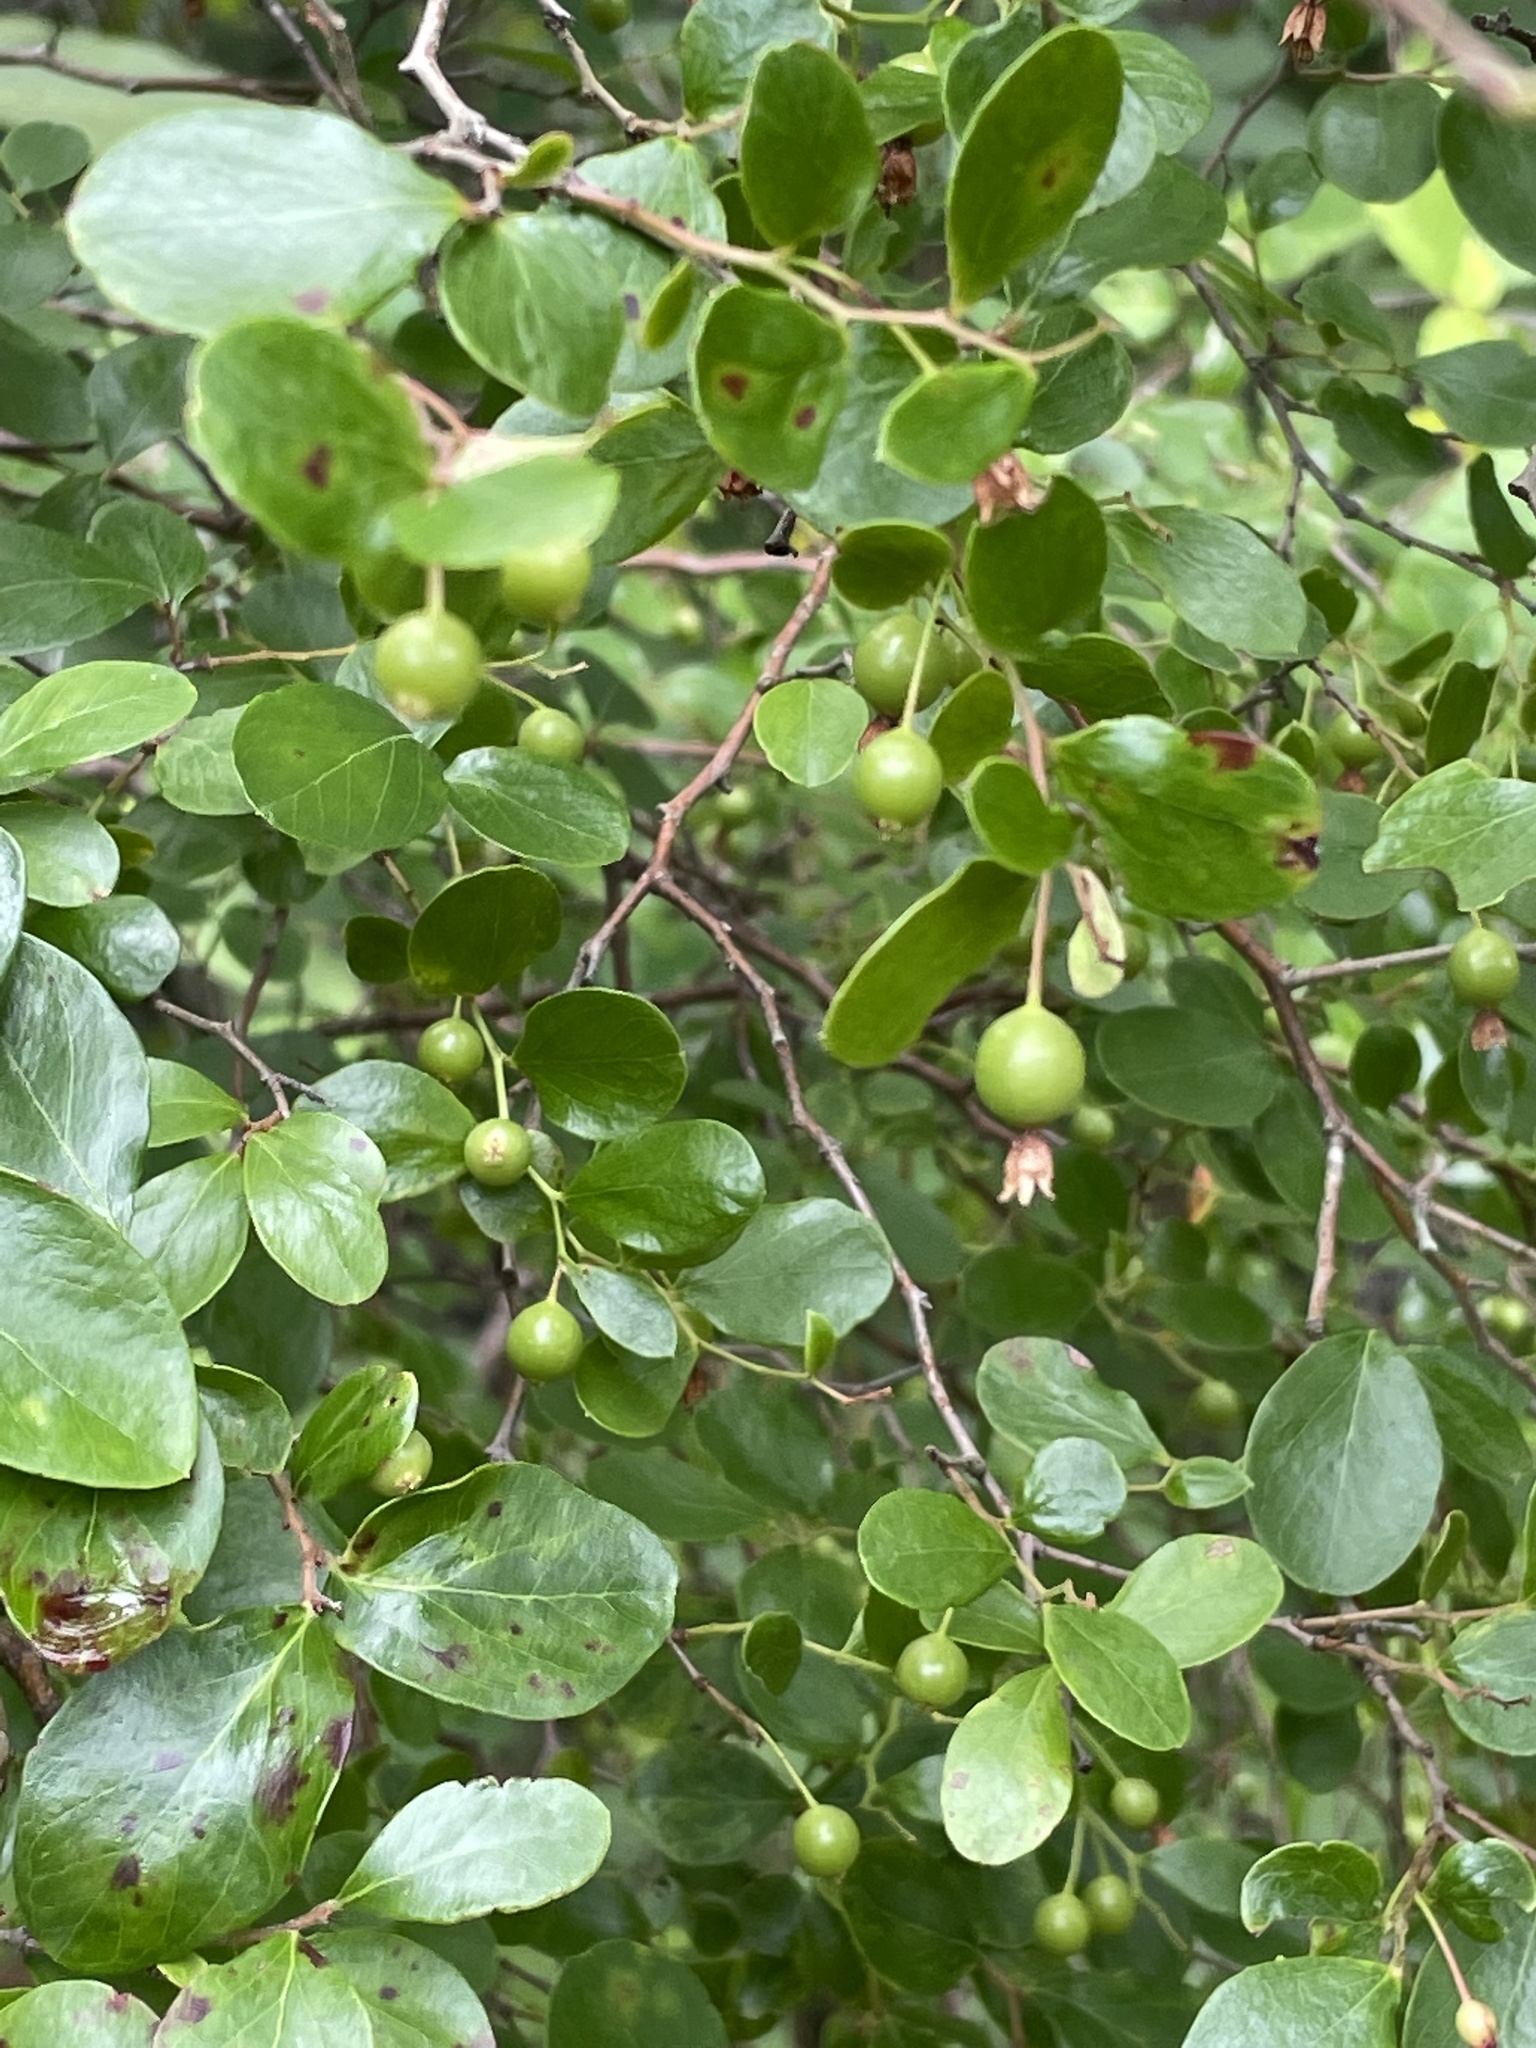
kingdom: Plantae
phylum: Tracheophyta
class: Magnoliopsida
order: Ericales
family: Ericaceae
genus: Vaccinium
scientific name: Vaccinium arboreum
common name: Farkleberry
